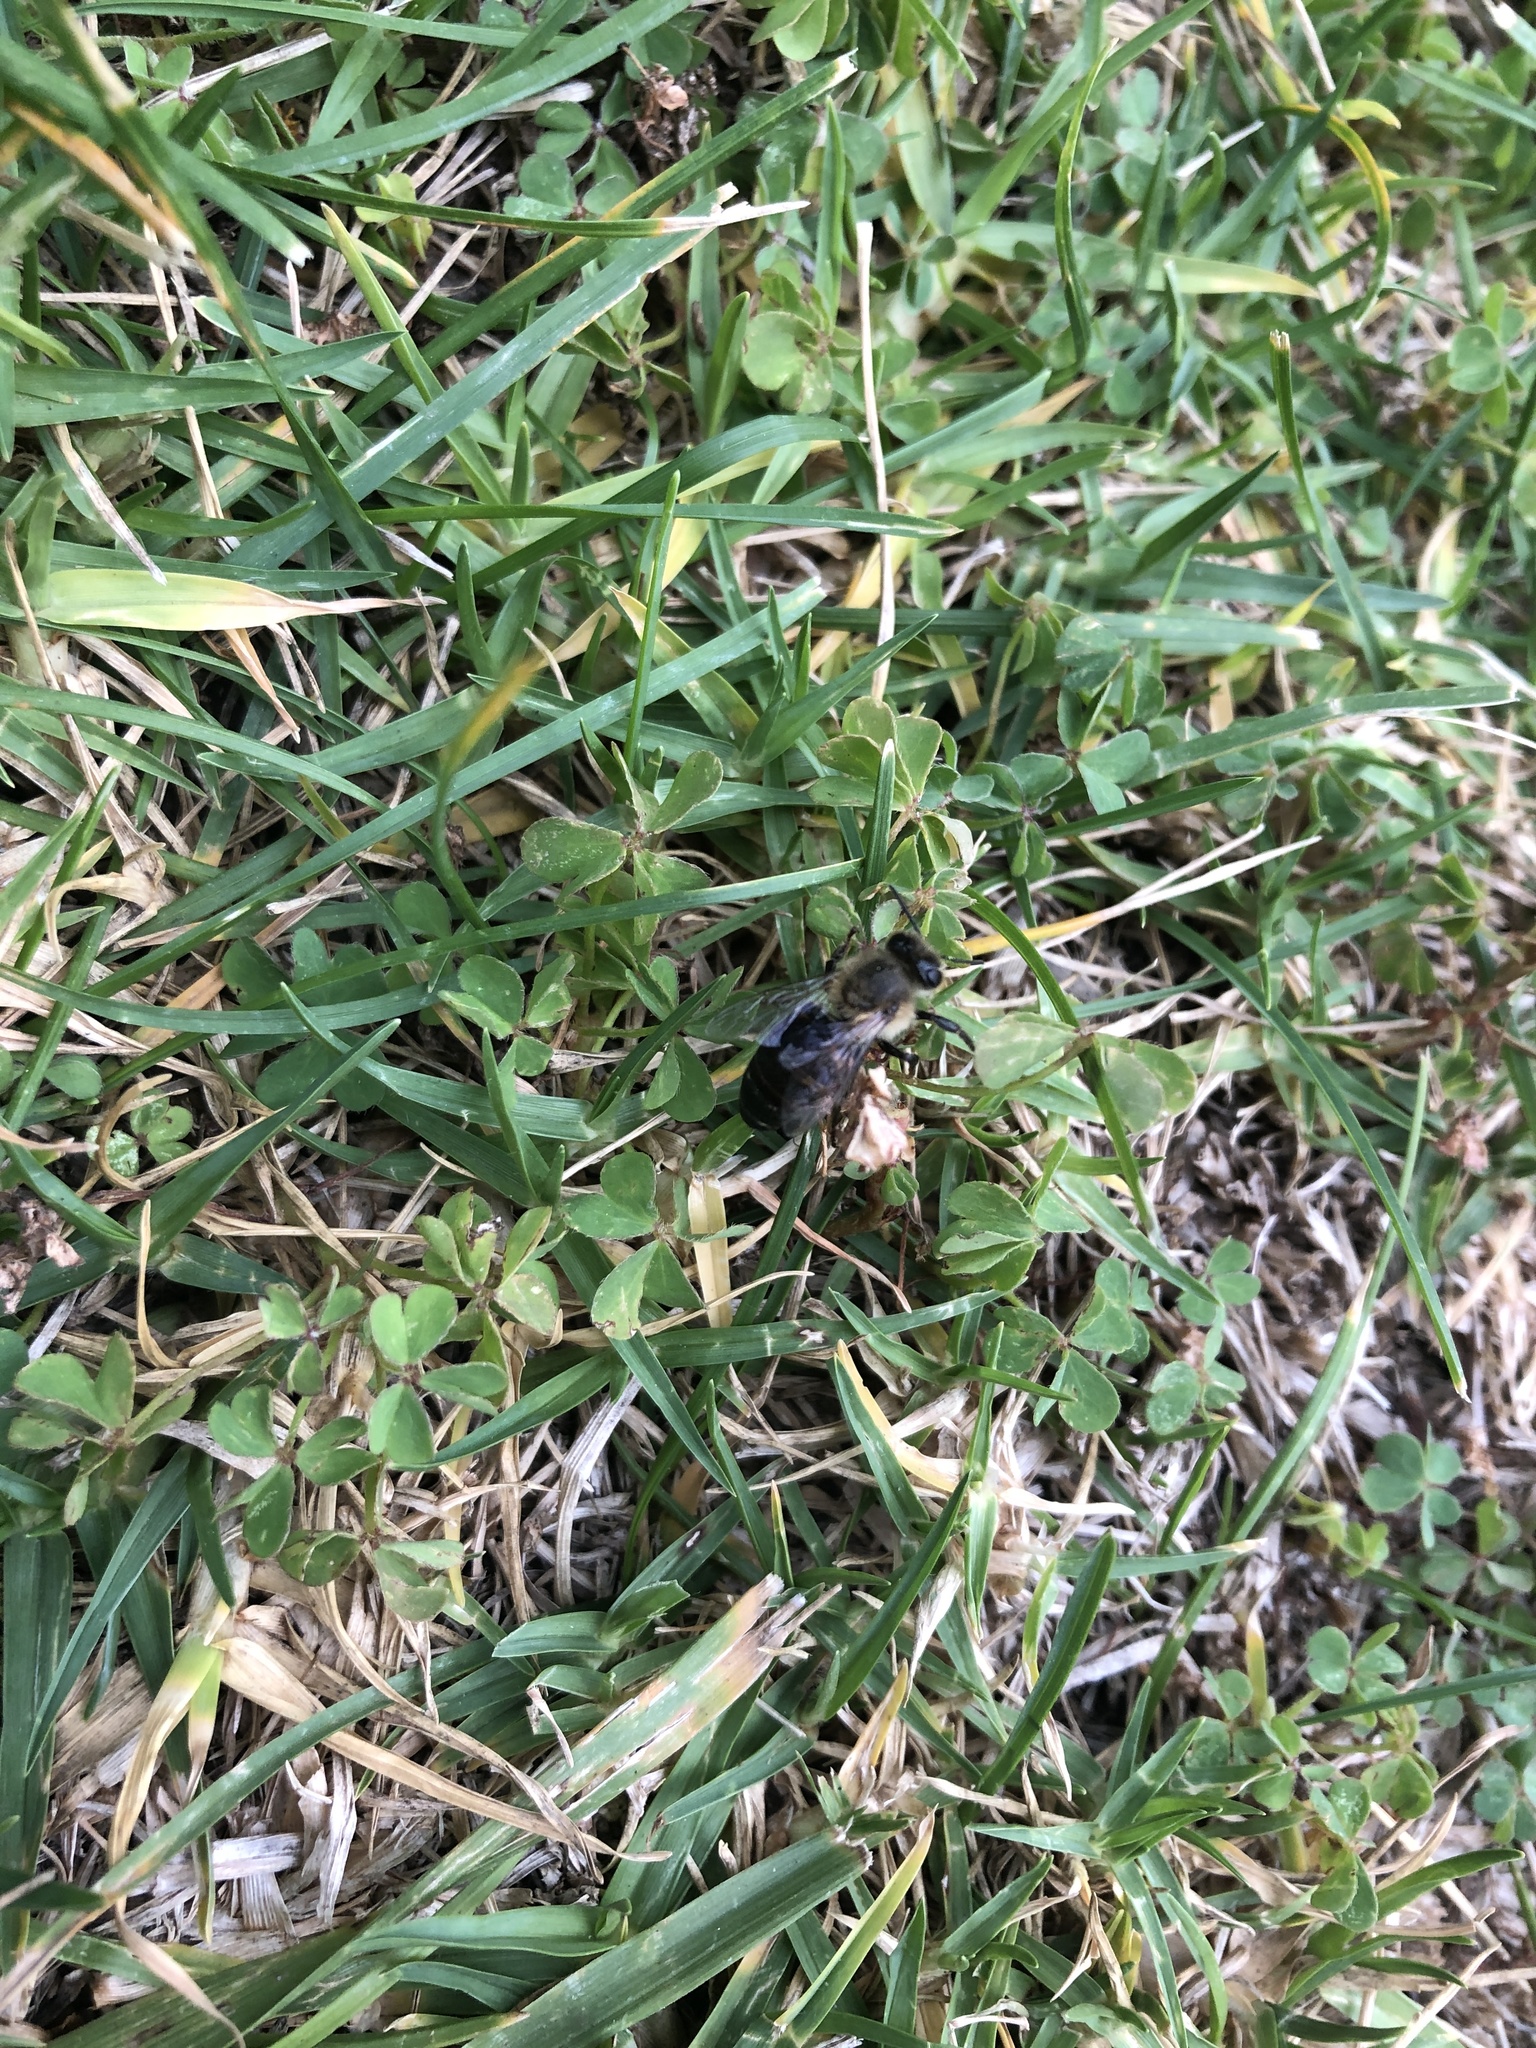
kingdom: Animalia
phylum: Arthropoda
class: Insecta
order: Hymenoptera
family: Apidae
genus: Apis
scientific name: Apis mellifera
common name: Honey bee
